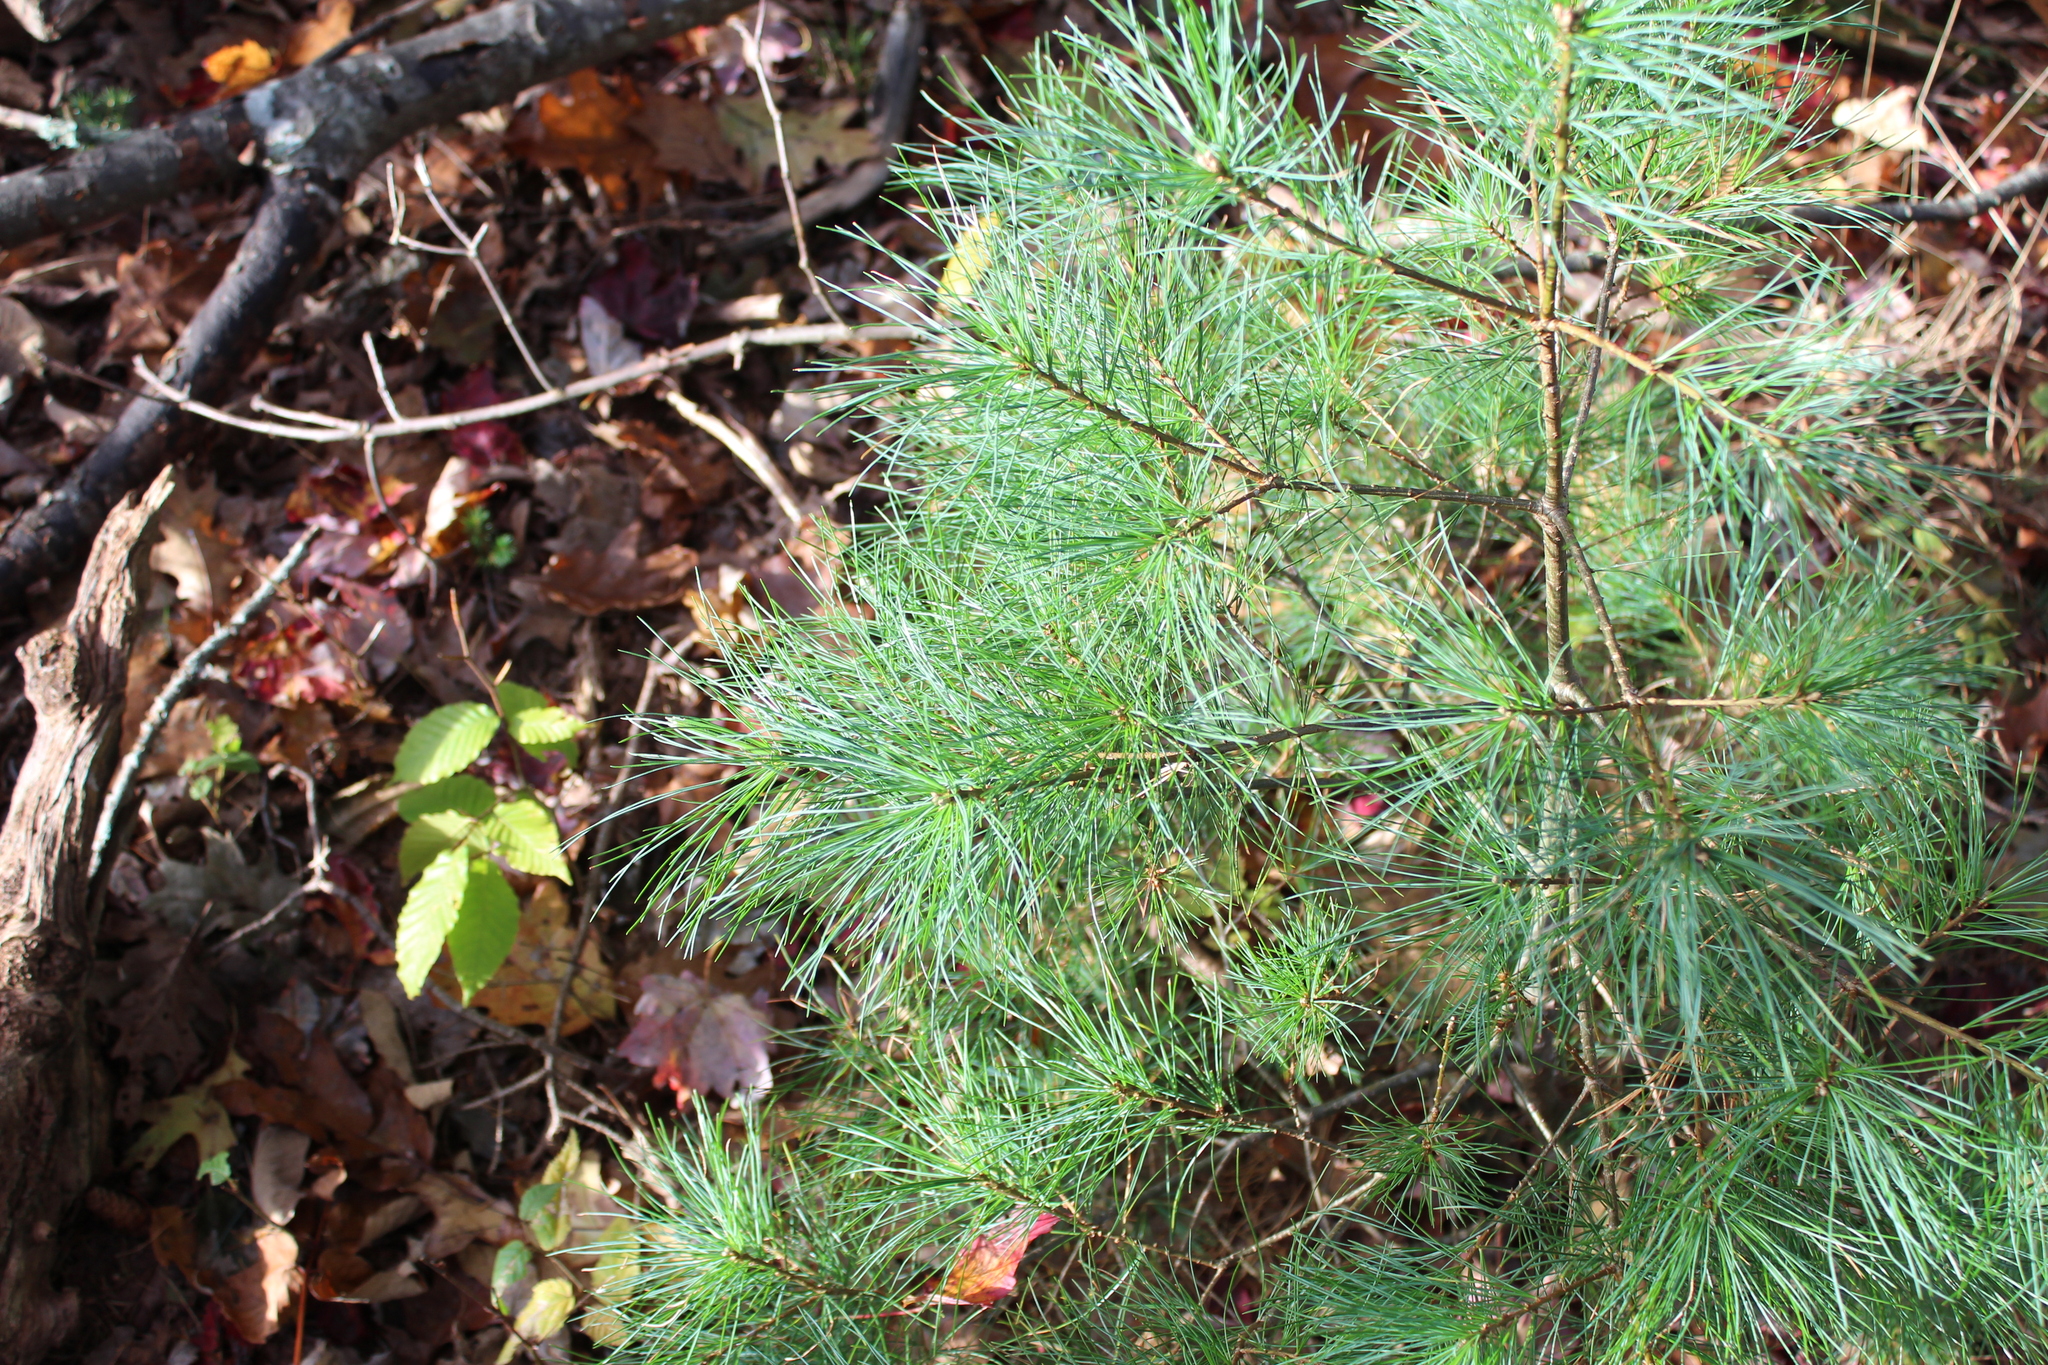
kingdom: Plantae
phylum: Tracheophyta
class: Pinopsida
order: Pinales
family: Pinaceae
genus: Pinus
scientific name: Pinus strobus
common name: Weymouth pine
